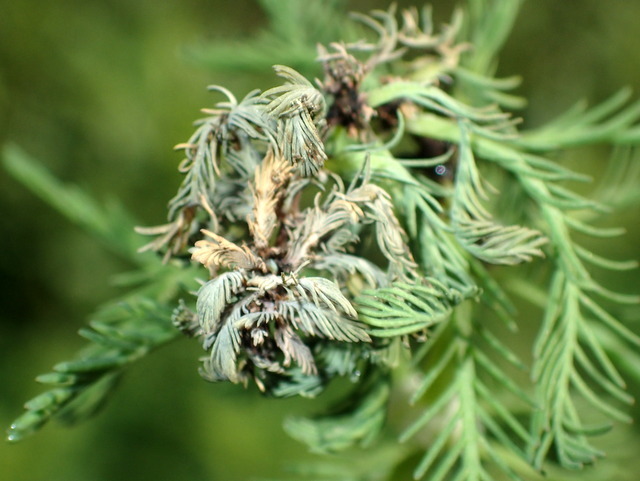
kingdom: Plantae
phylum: Tracheophyta
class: Magnoliopsida
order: Saxifragales
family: Haloragaceae
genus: Myriophyllum
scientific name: Myriophyllum aquaticum
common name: Parrot's feather
